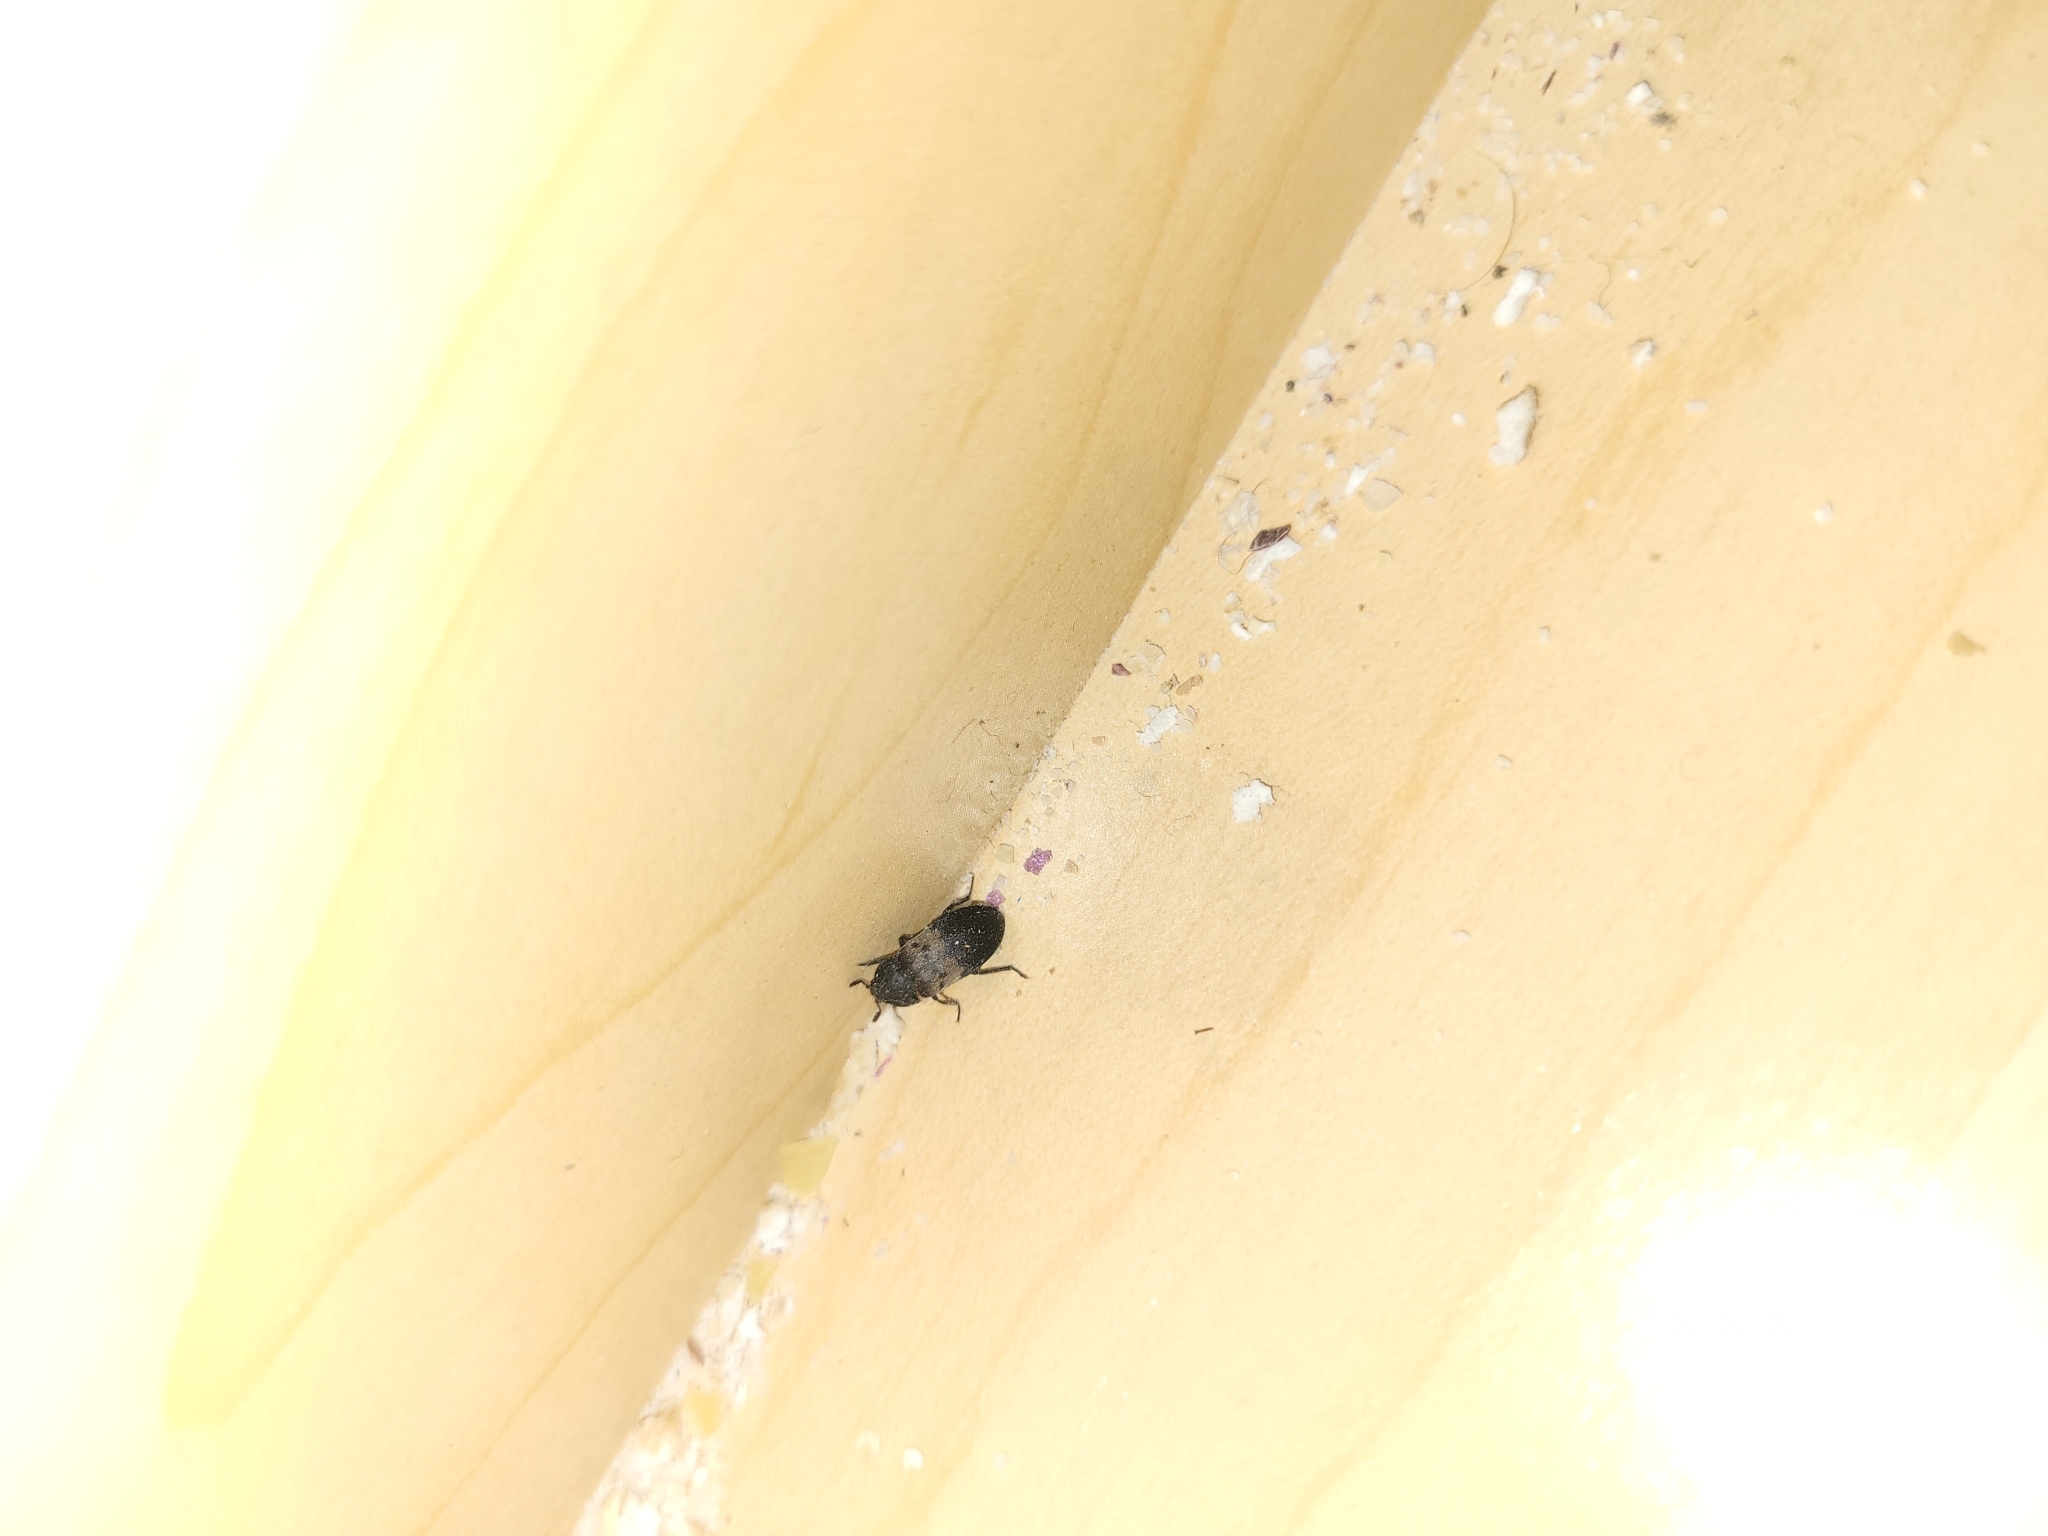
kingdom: Animalia
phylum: Arthropoda
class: Insecta
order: Coleoptera
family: Dermestidae
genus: Dermestes
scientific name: Dermestes lardarius
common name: Larder beetle
